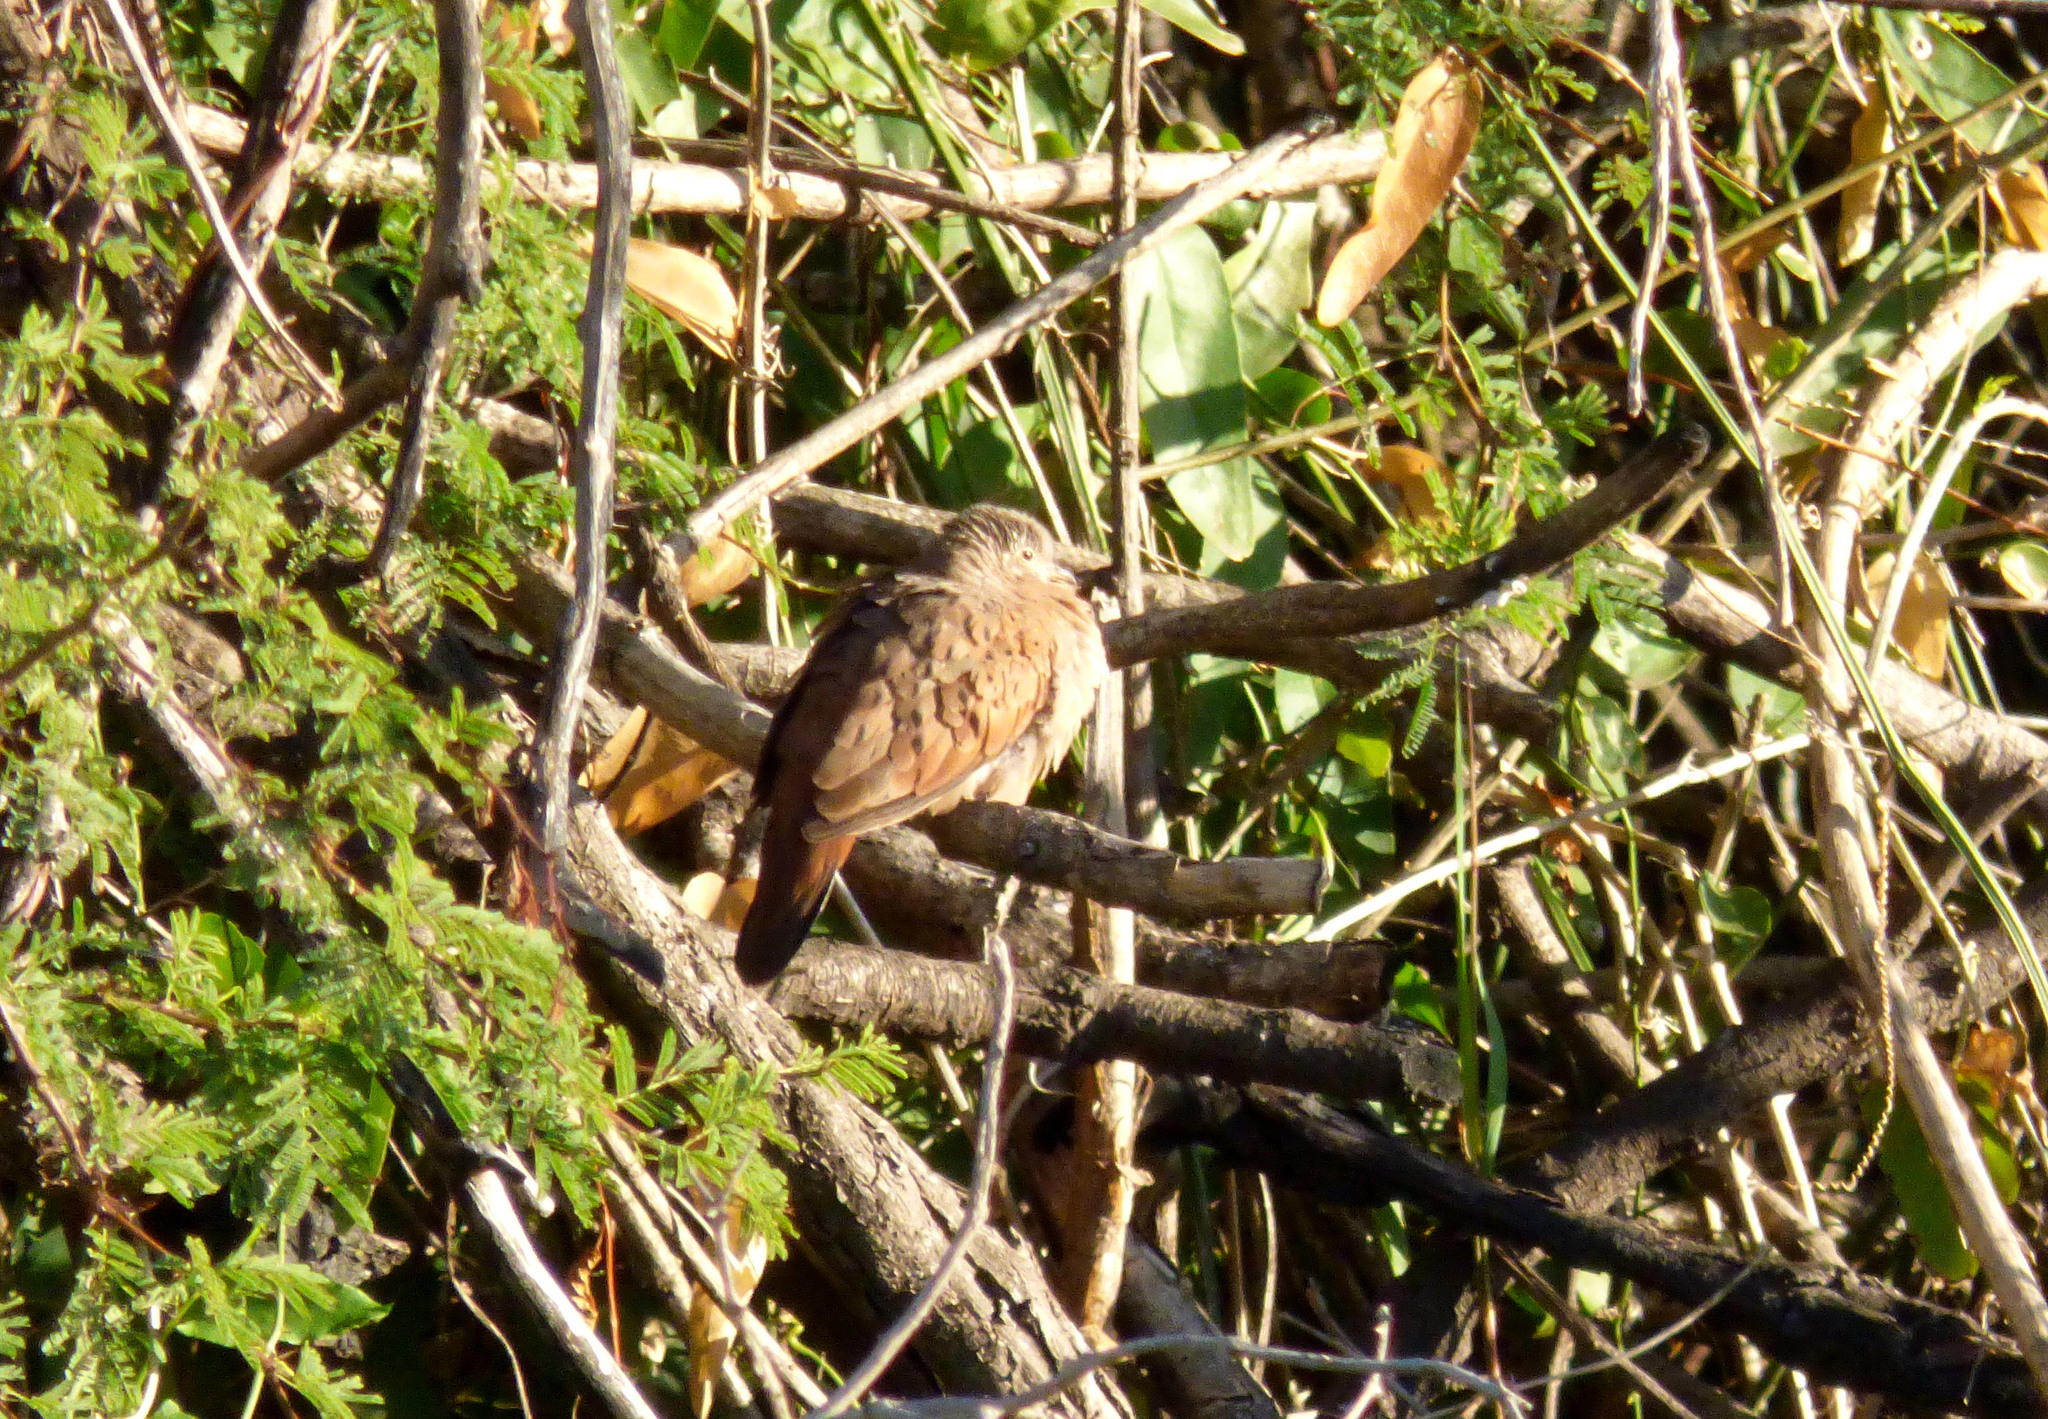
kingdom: Animalia
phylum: Chordata
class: Aves
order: Columbiformes
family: Columbidae
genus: Columbina
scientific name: Columbina talpacoti
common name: Ruddy ground dove
